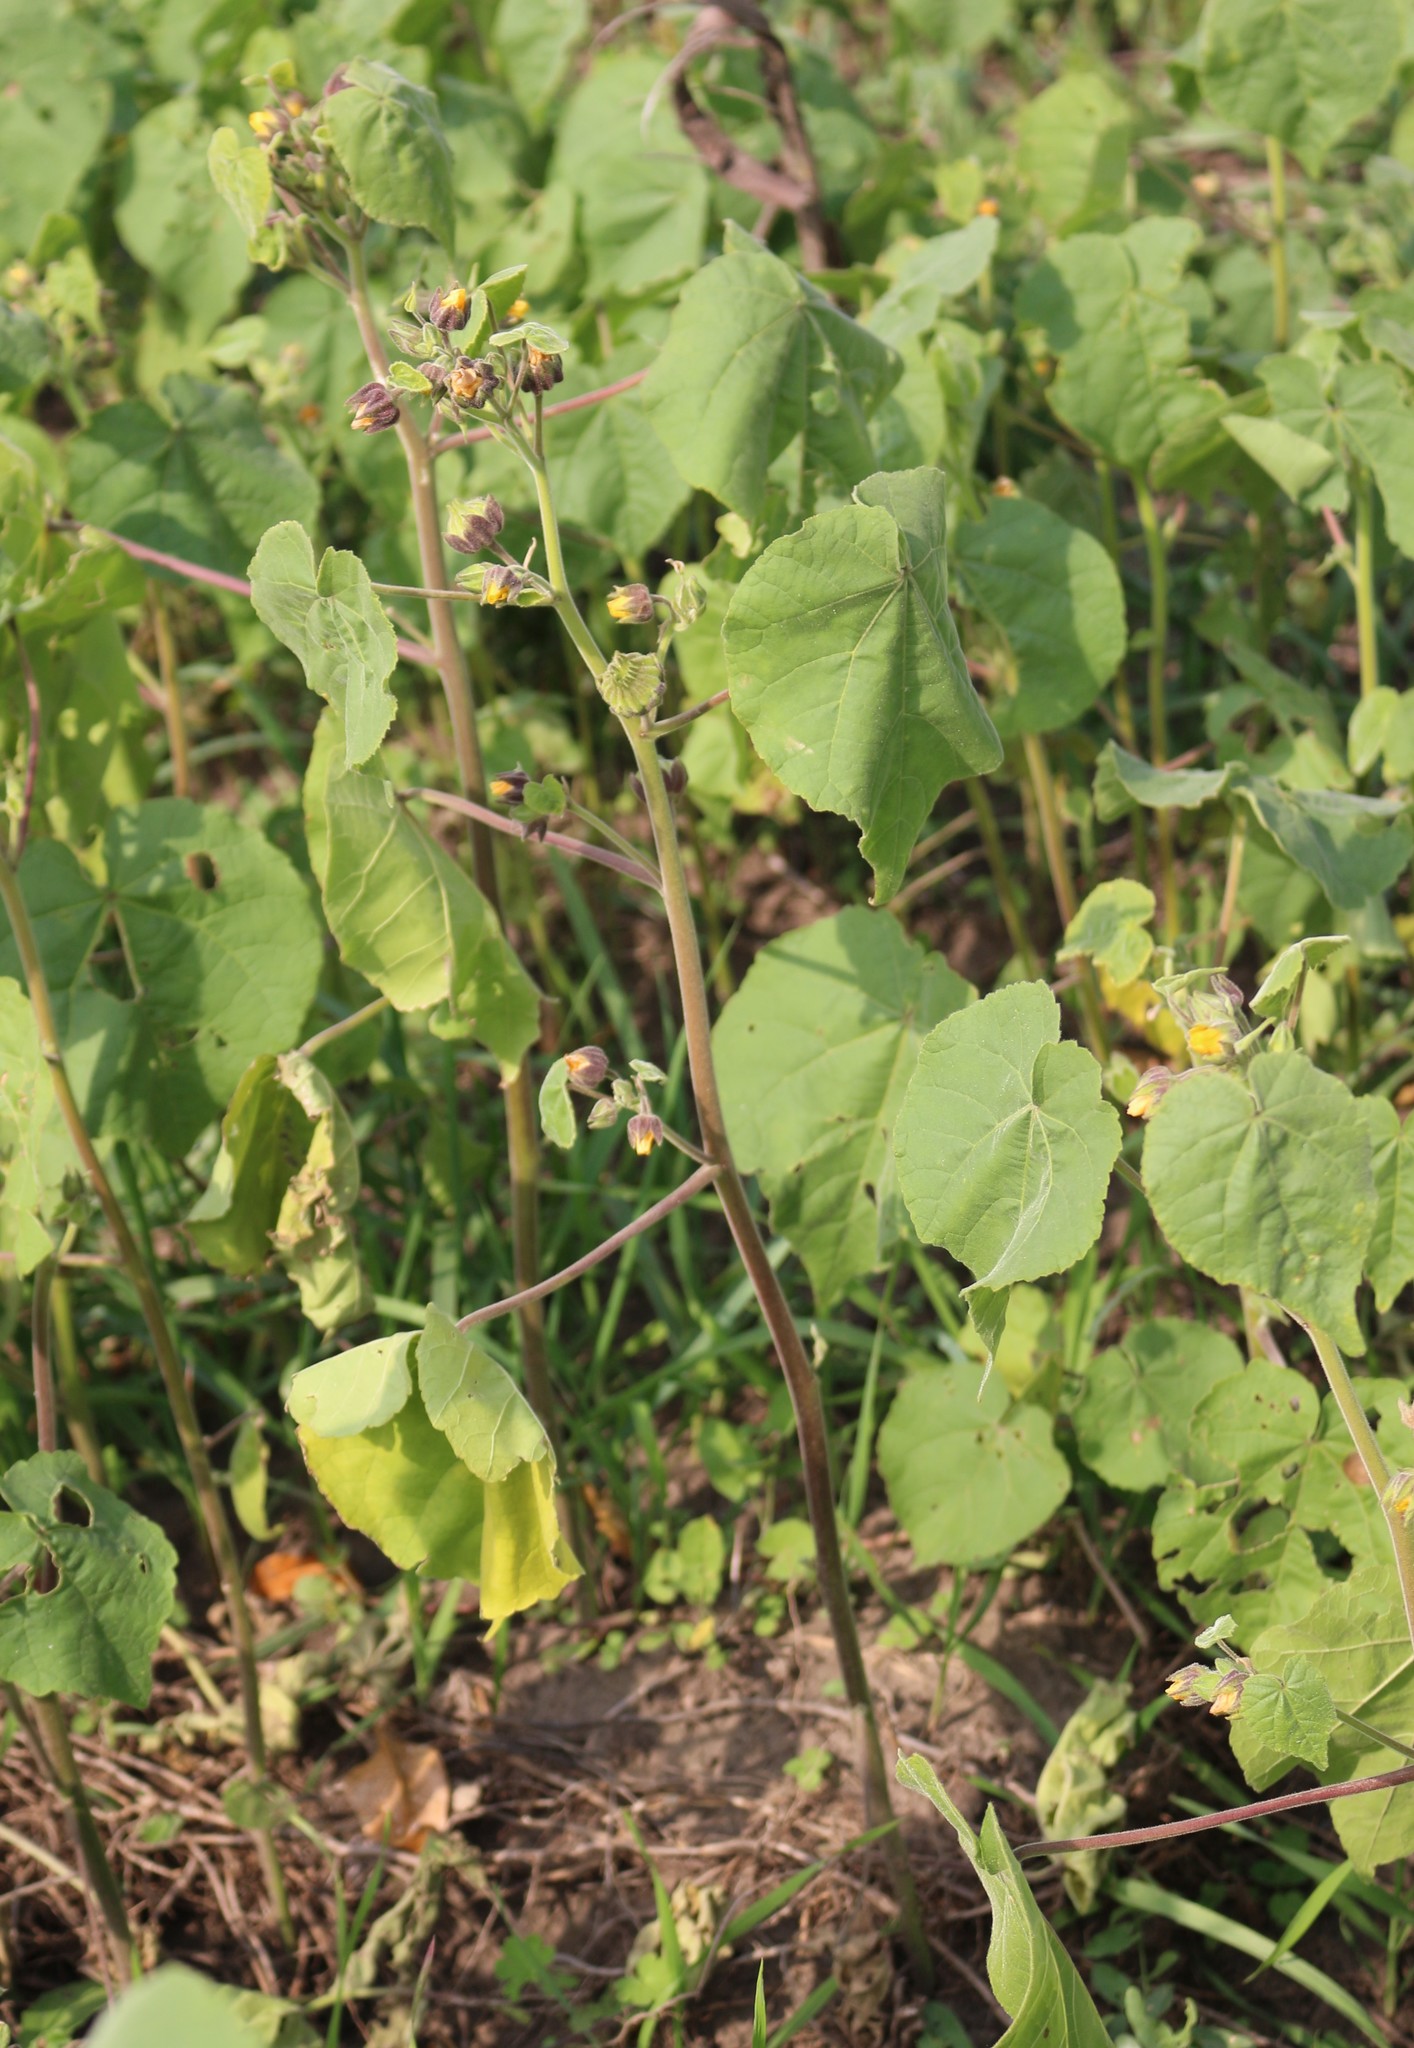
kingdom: Plantae
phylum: Tracheophyta
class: Magnoliopsida
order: Malvales
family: Malvaceae
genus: Abutilon
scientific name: Abutilon theophrasti
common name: Velvetleaf
